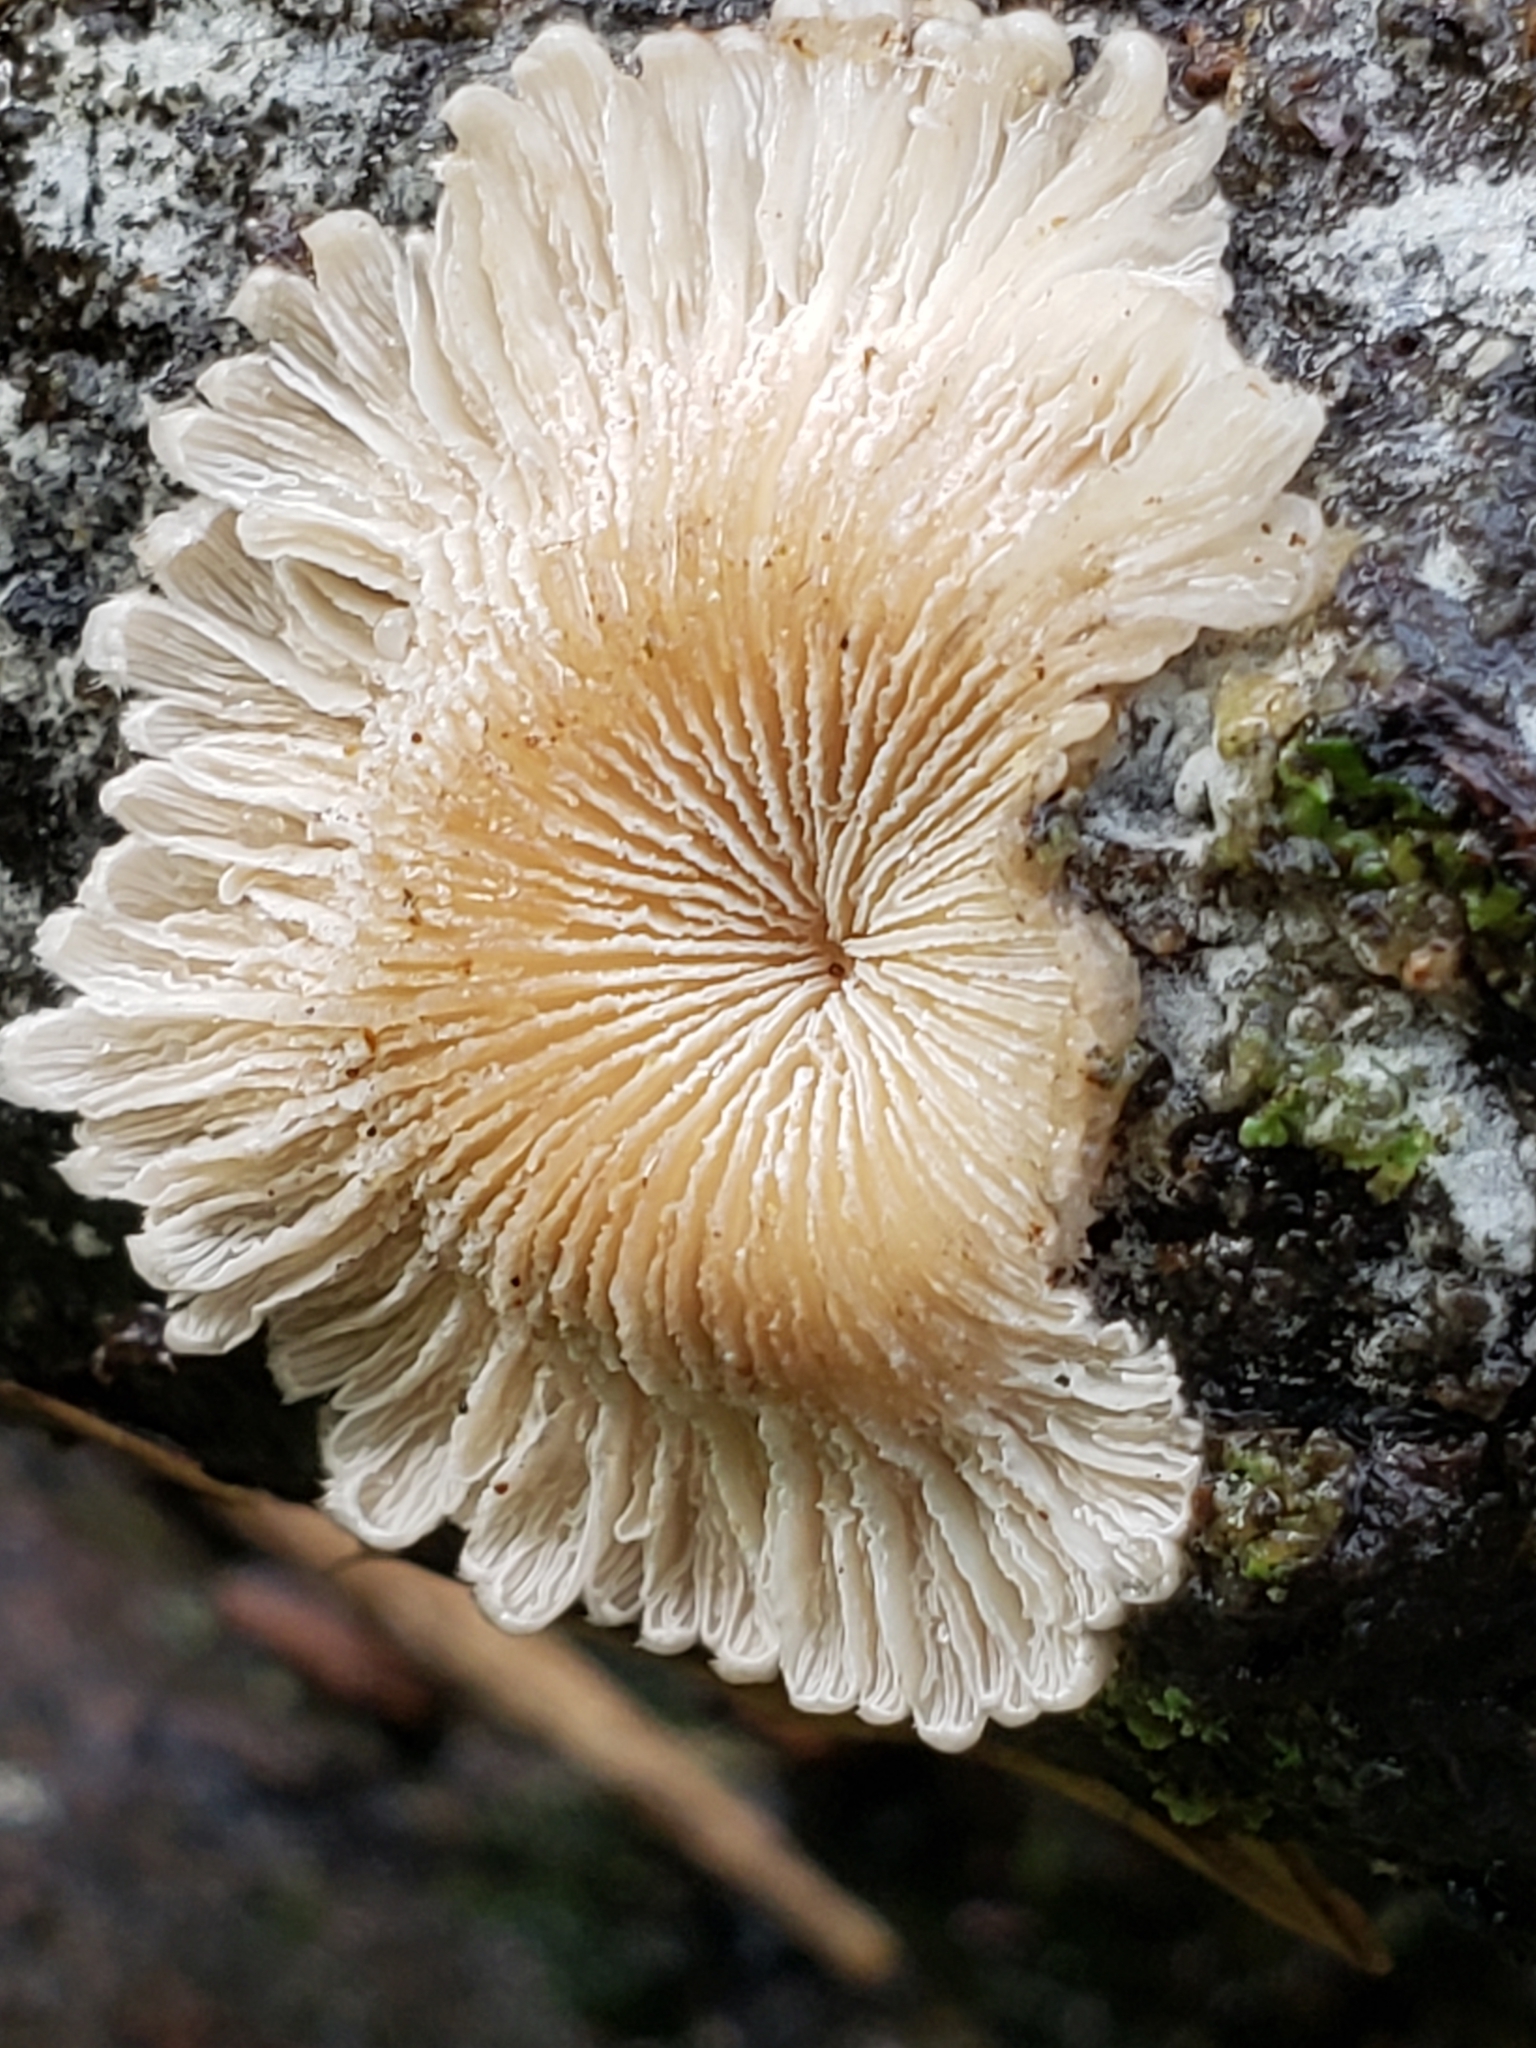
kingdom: Fungi
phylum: Basidiomycota
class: Agaricomycetes
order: Agaricales
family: Schizophyllaceae
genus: Schizophyllum
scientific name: Schizophyllum commune
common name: Common porecrust
